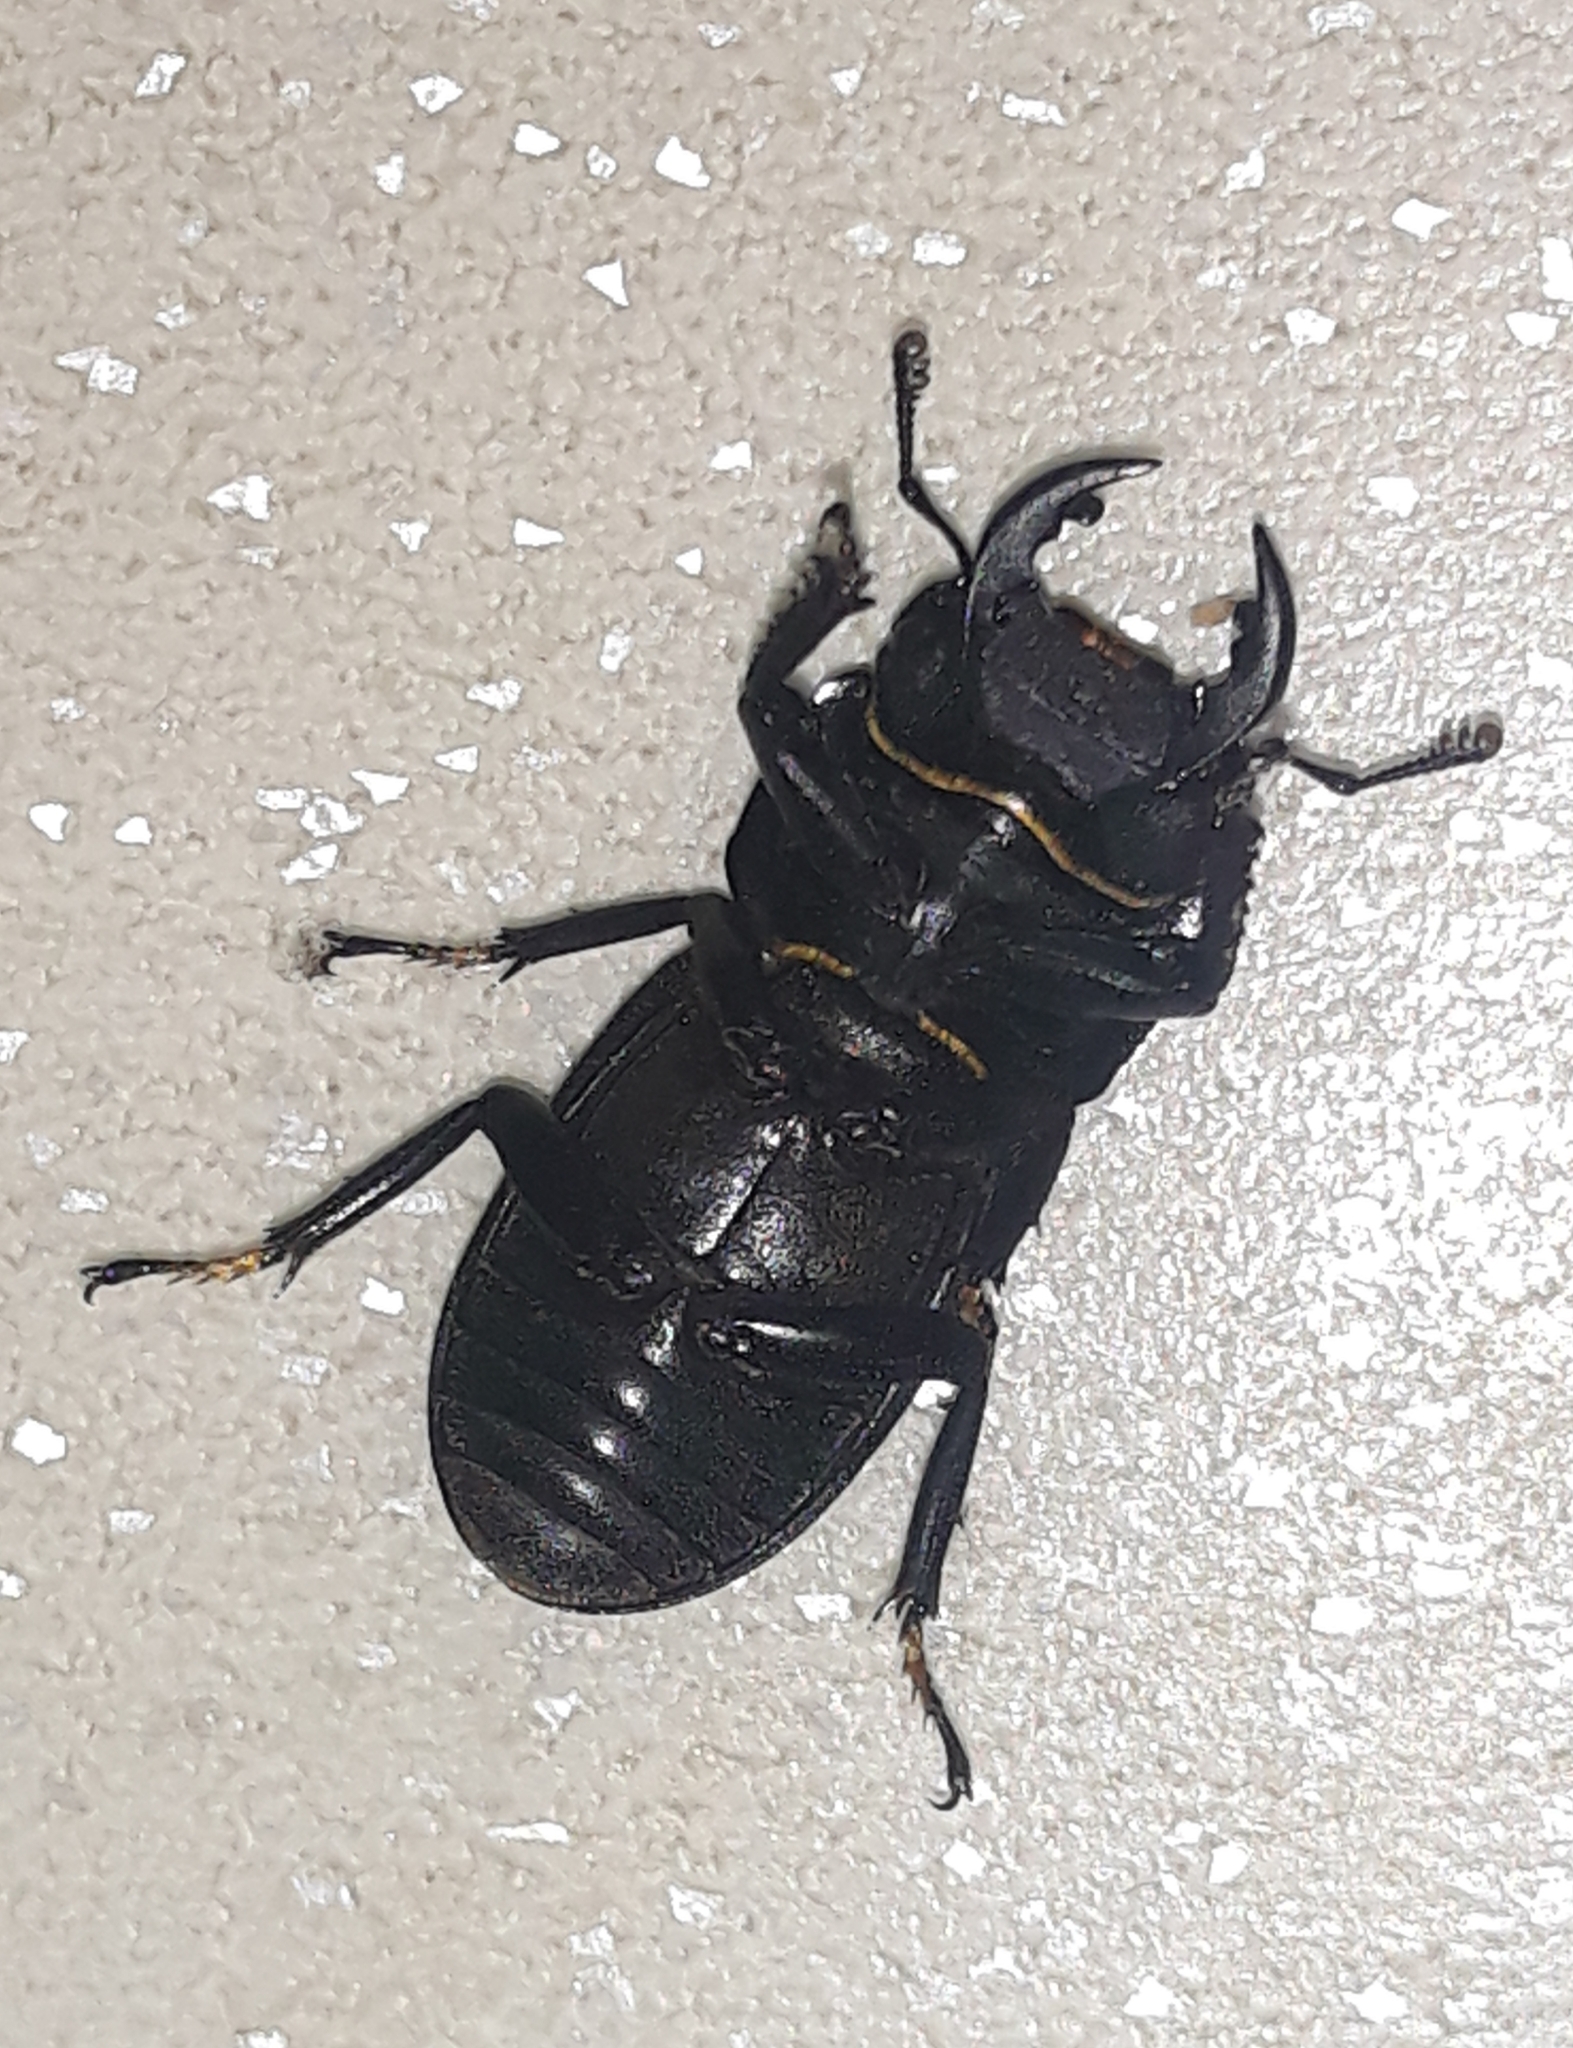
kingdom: Animalia
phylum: Arthropoda
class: Insecta
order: Coleoptera
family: Lucanidae
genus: Dorcus
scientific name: Dorcus parallelipipedus
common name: Lesser stag beetle
